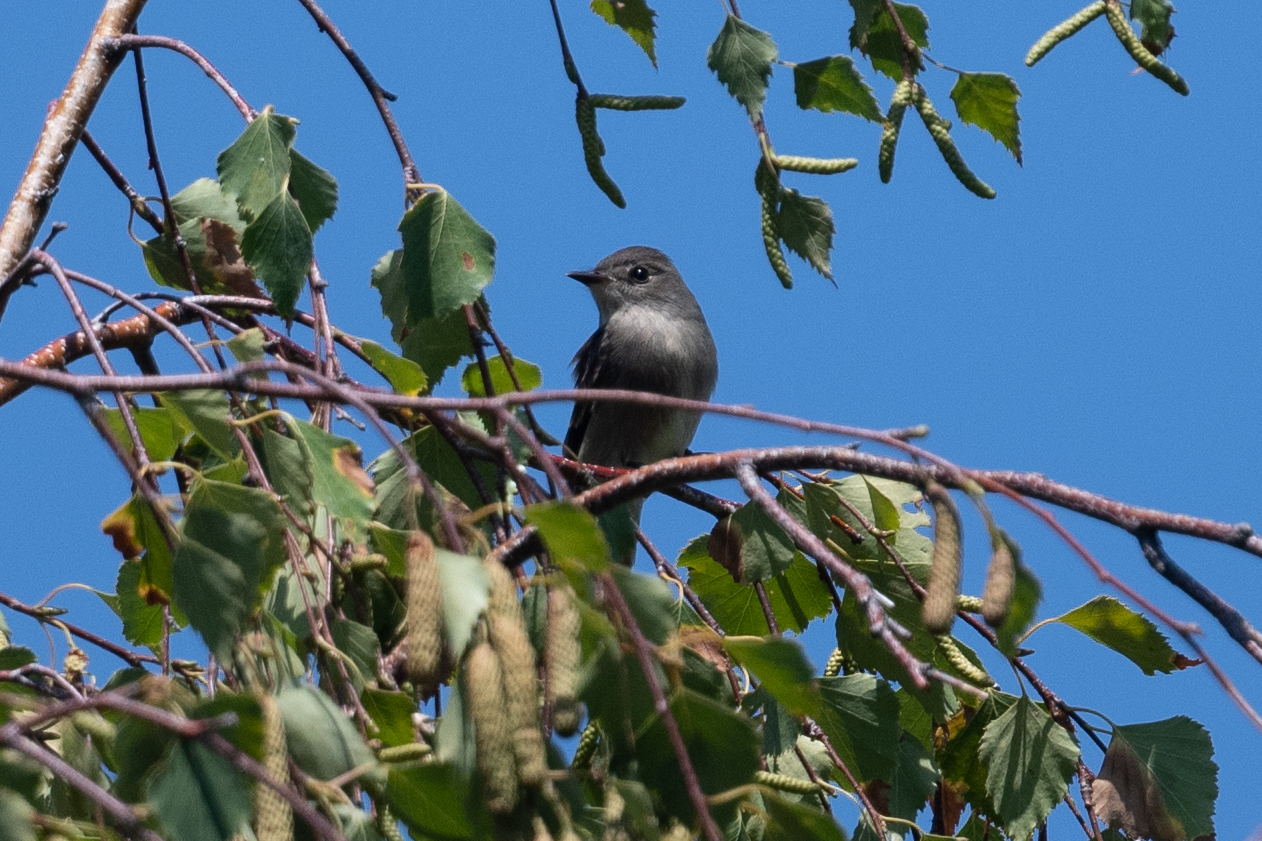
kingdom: Animalia
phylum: Chordata
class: Aves
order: Passeriformes
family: Tyrannidae
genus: Contopus
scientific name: Contopus sordidulus
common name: Western wood-pewee
